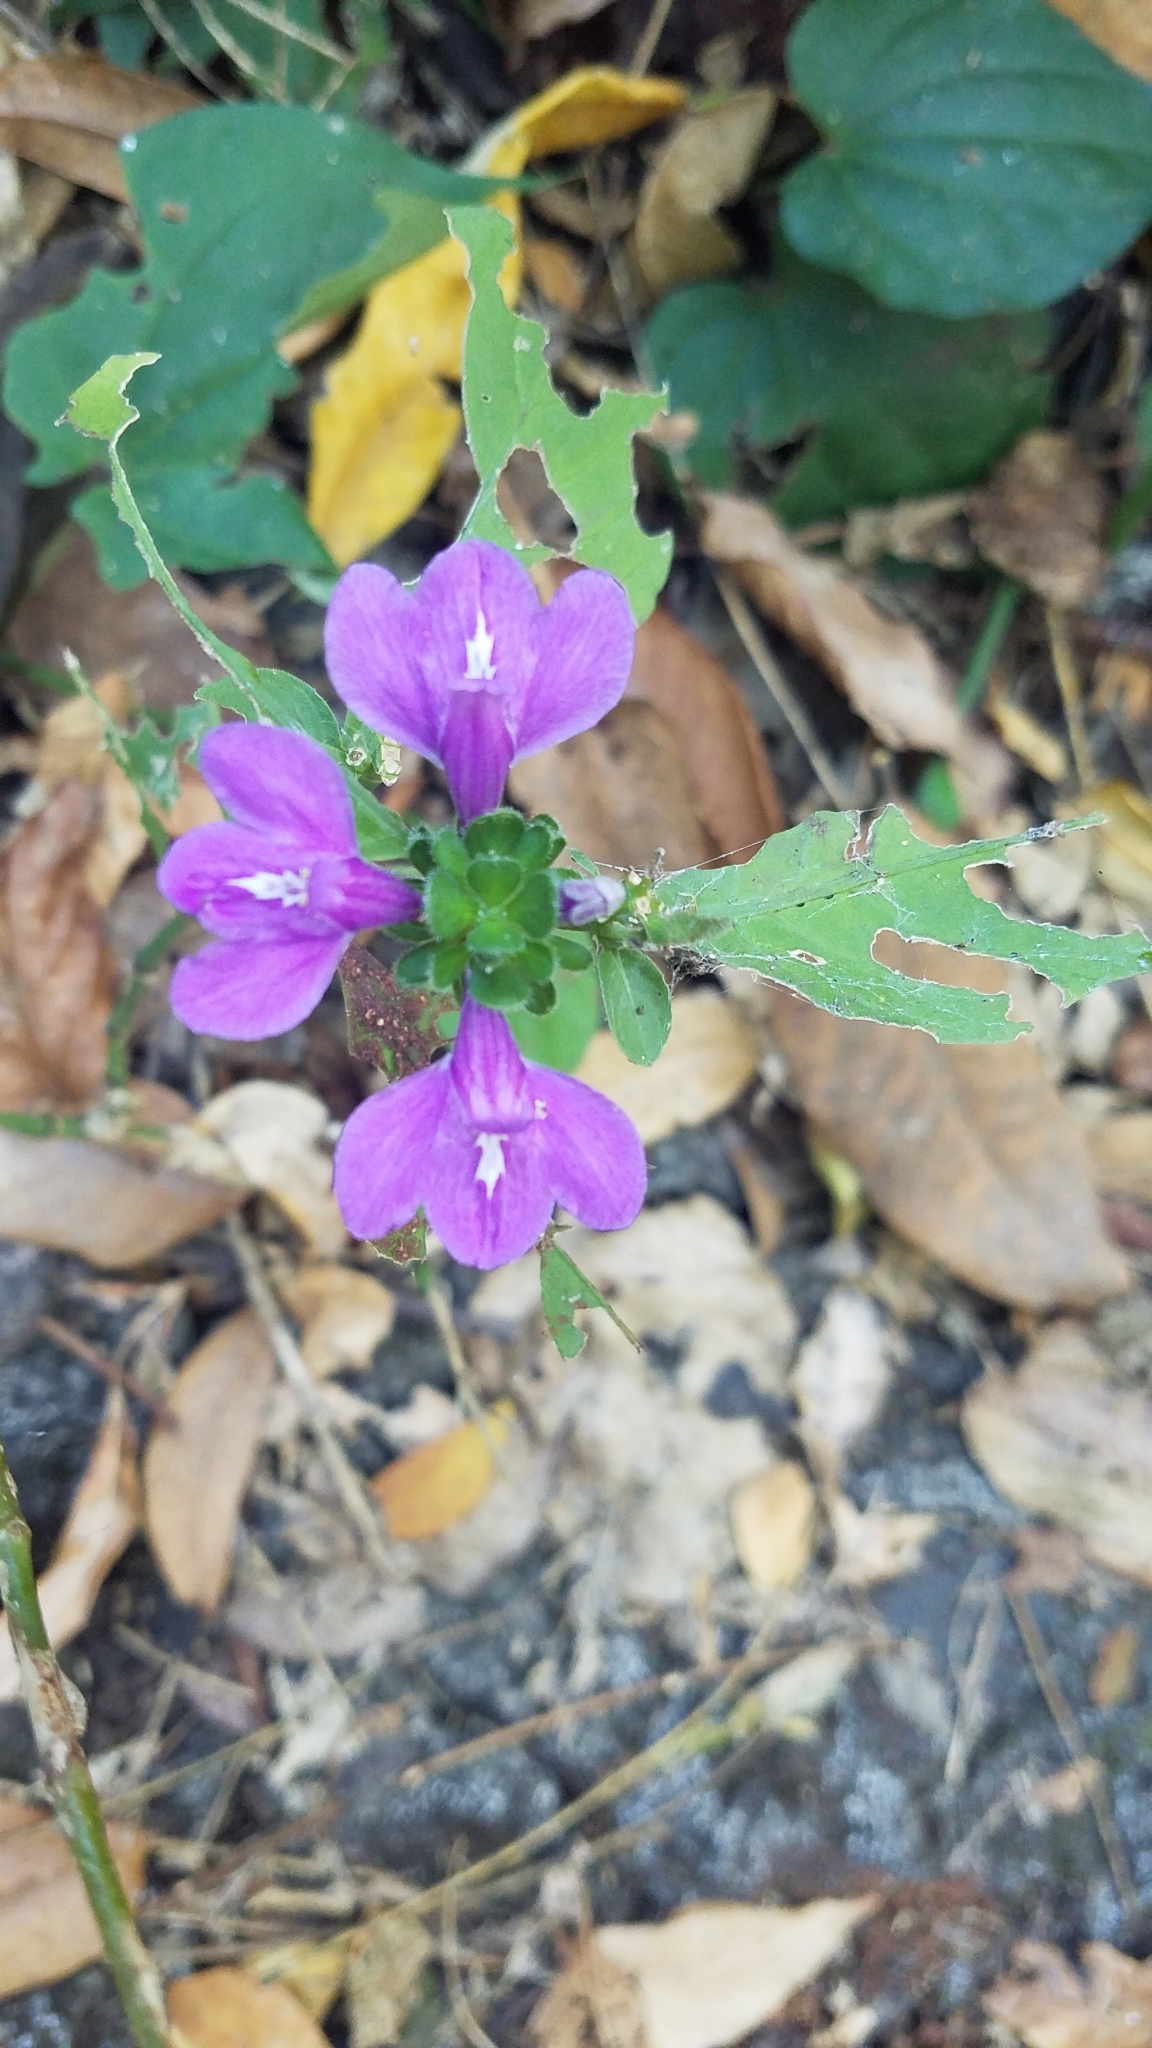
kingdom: Plantae
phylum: Tracheophyta
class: Magnoliopsida
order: Lamiales
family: Acanthaceae
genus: Justicia
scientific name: Justicia carthaginensis
